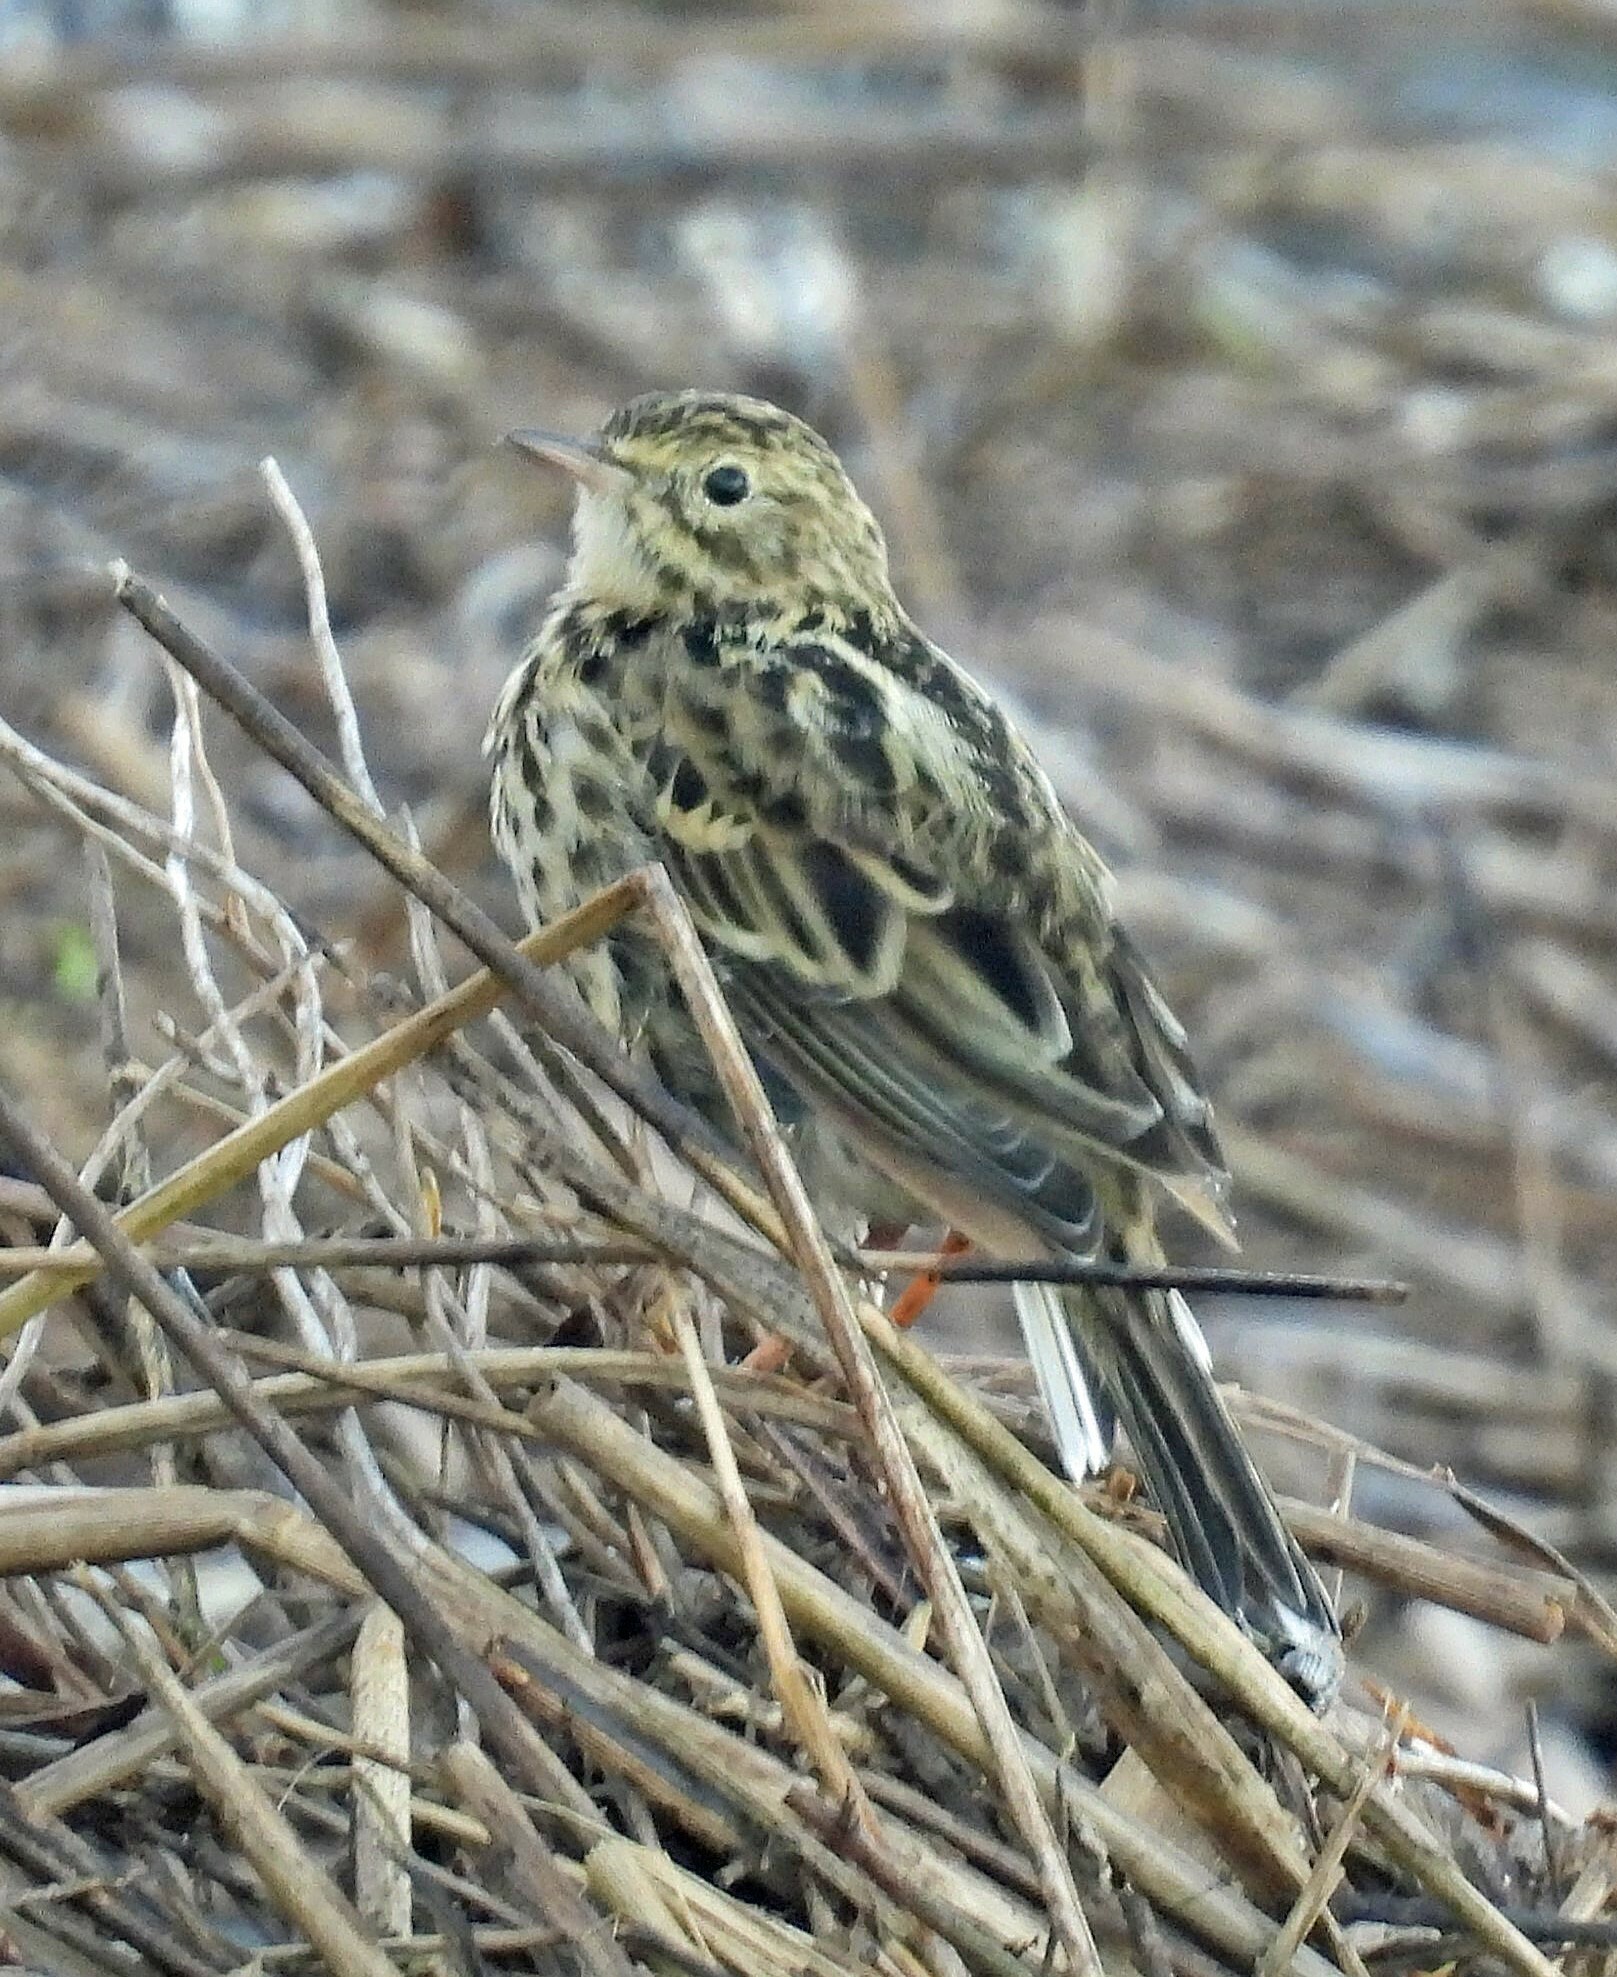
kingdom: Animalia
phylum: Chordata
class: Aves
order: Passeriformes
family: Motacillidae
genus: Anthus
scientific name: Anthus correndera
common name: Correndera pipit
